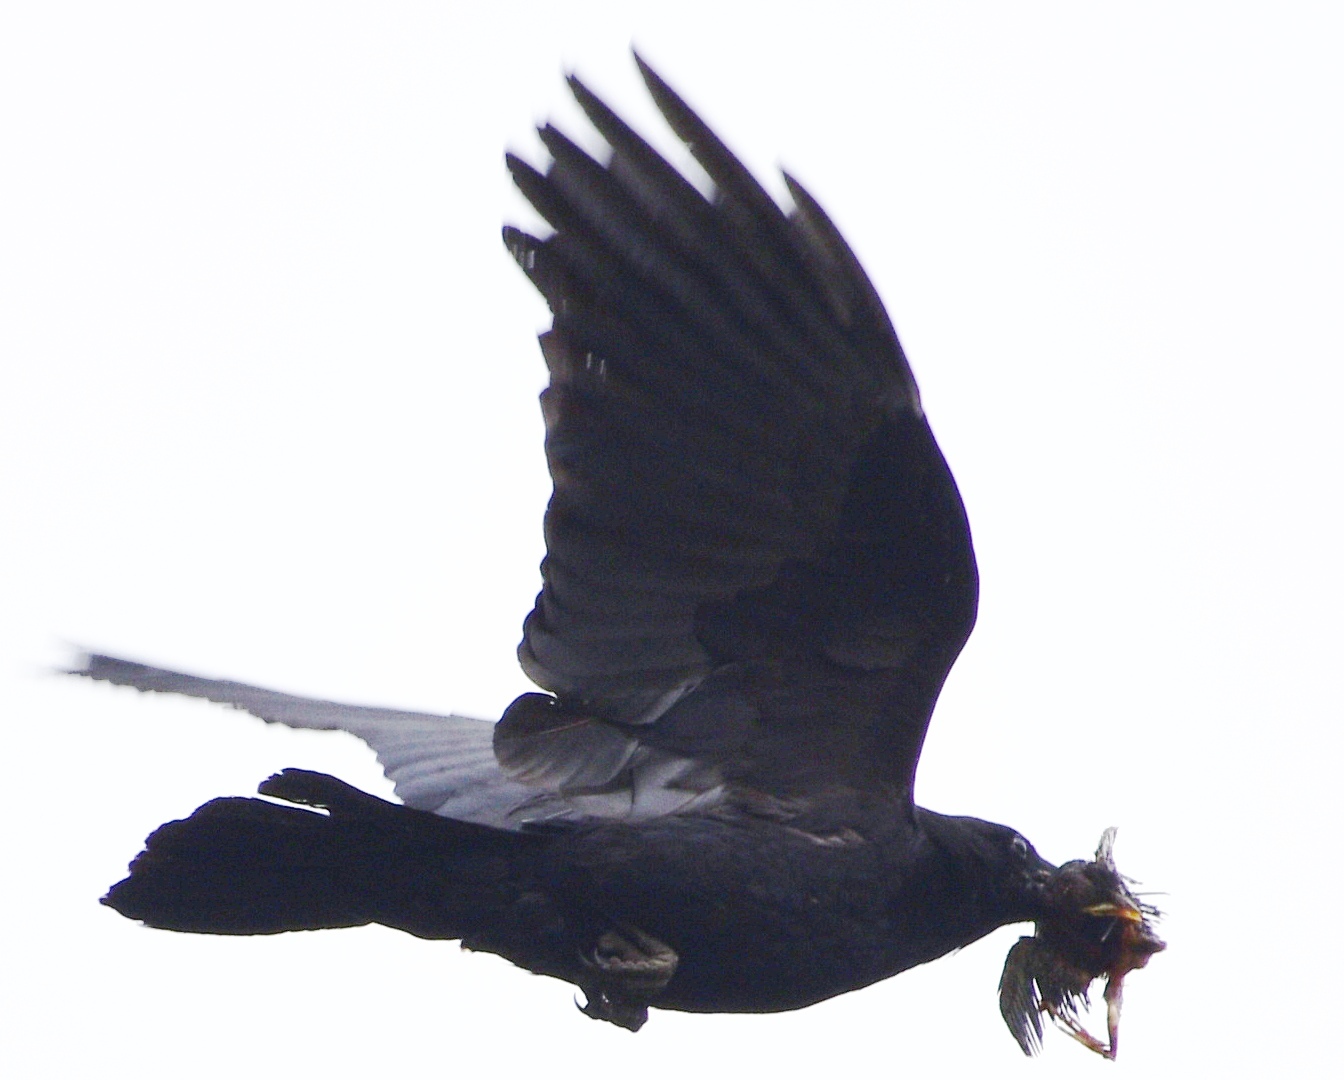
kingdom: Animalia
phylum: Chordata
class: Aves
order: Passeriformes
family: Corvidae
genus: Corvus
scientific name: Corvus brachyrhynchos
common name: American crow
